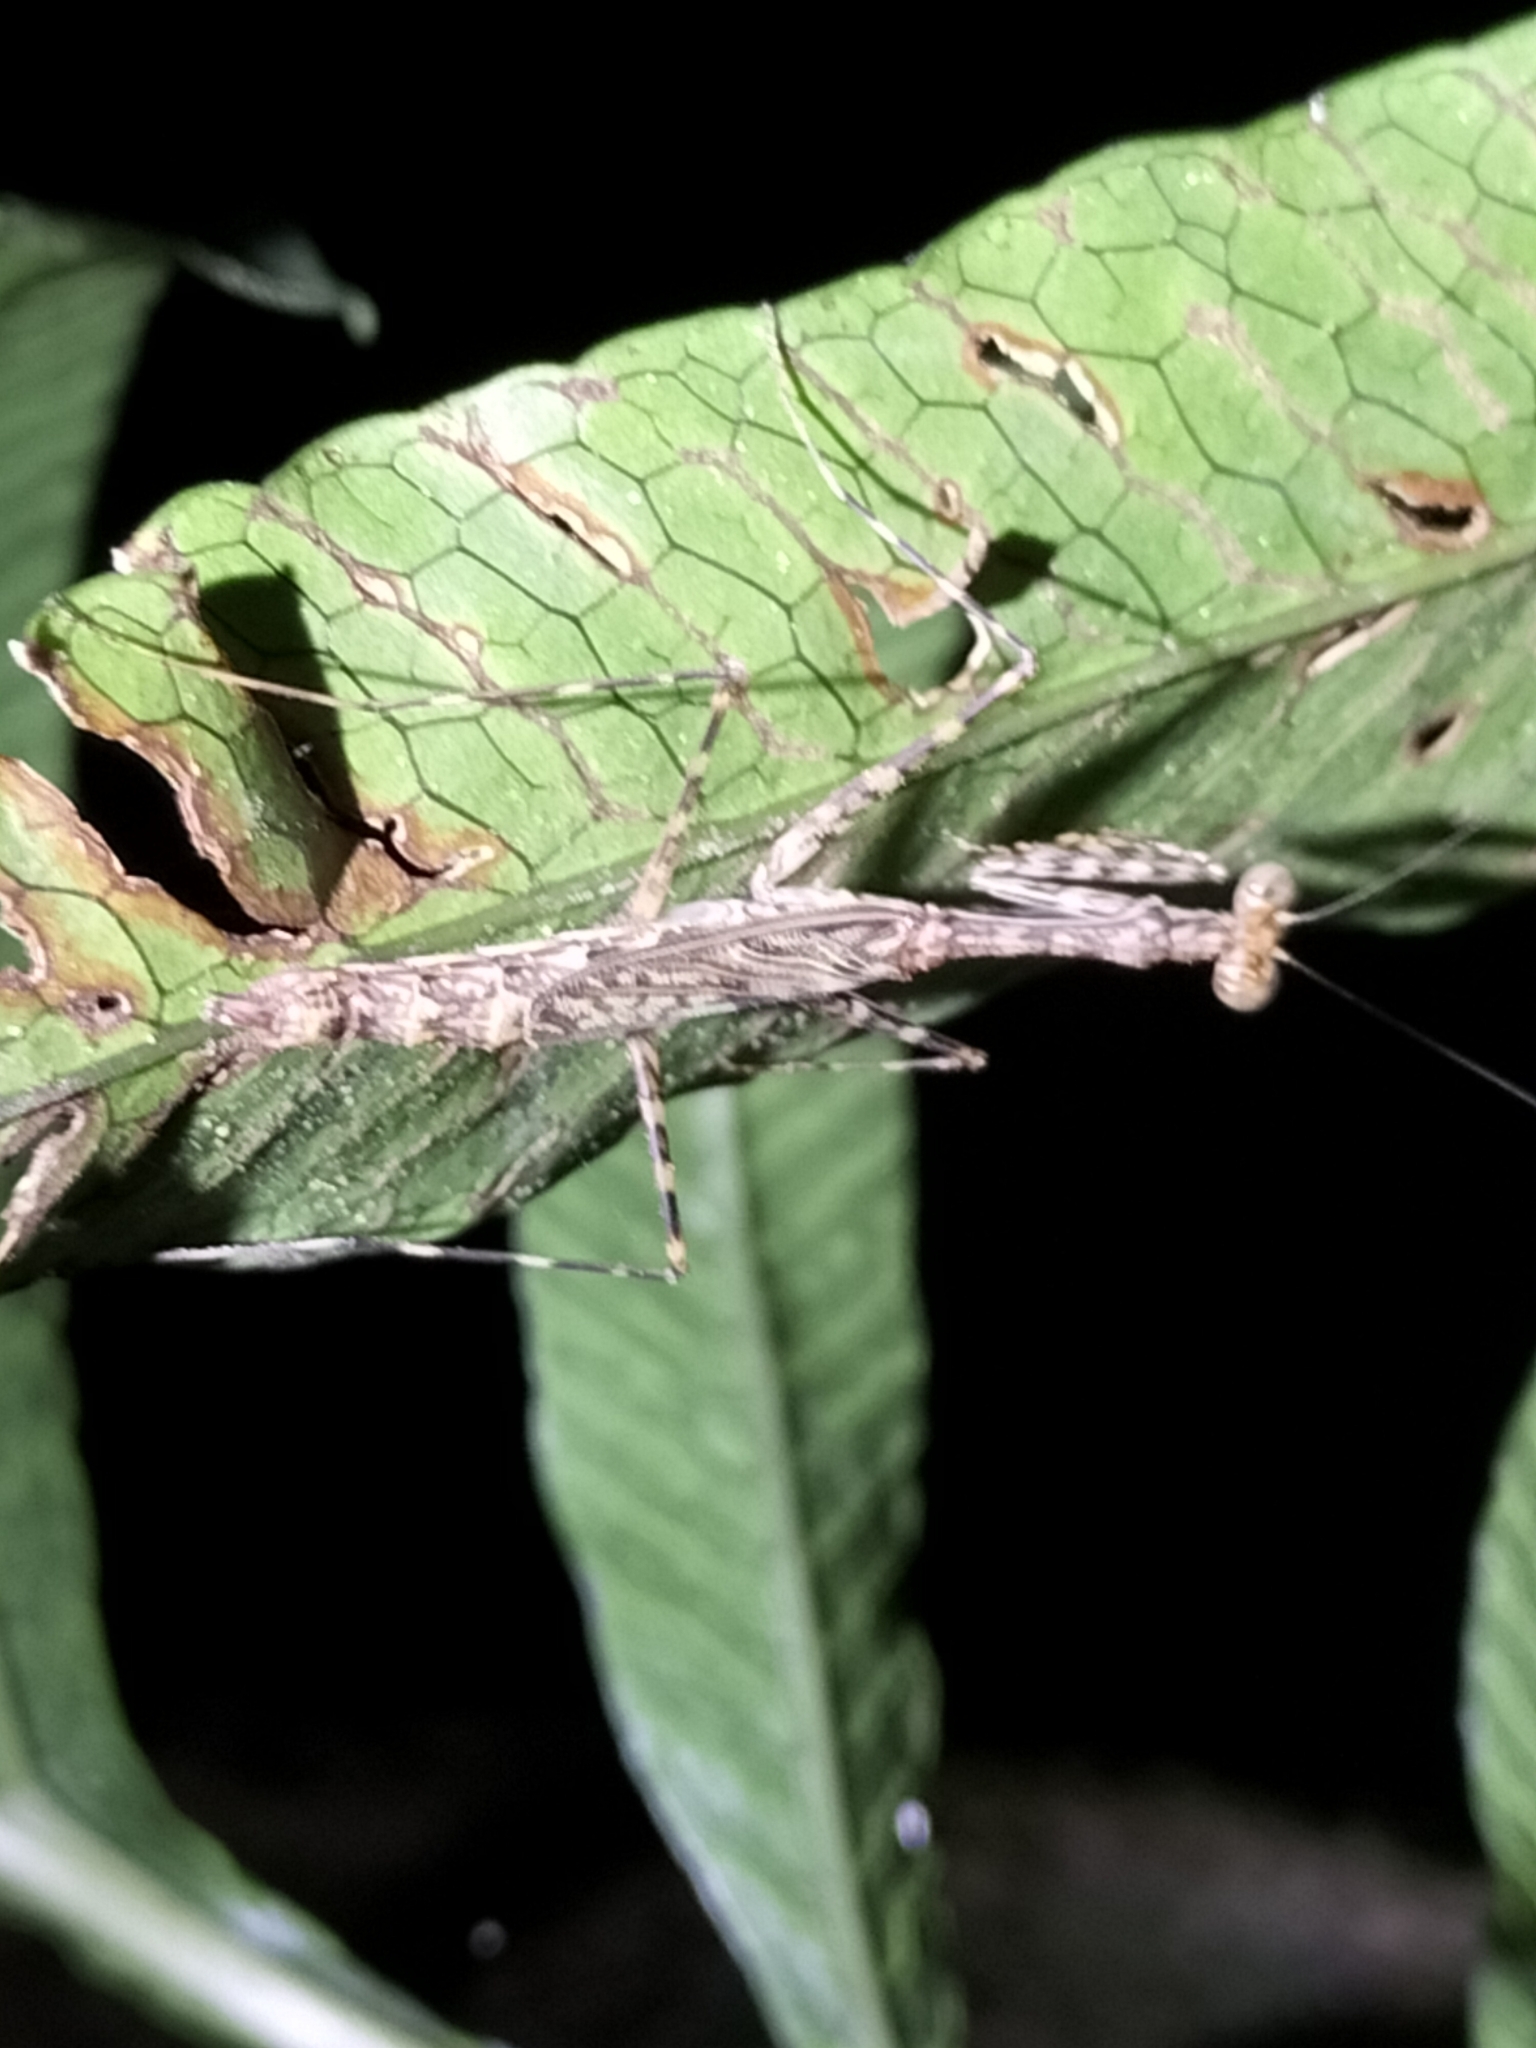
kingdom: Animalia
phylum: Arthropoda
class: Insecta
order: Mantodea
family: Nanomantidae
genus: Ciulfina
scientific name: Ciulfina rentzi
